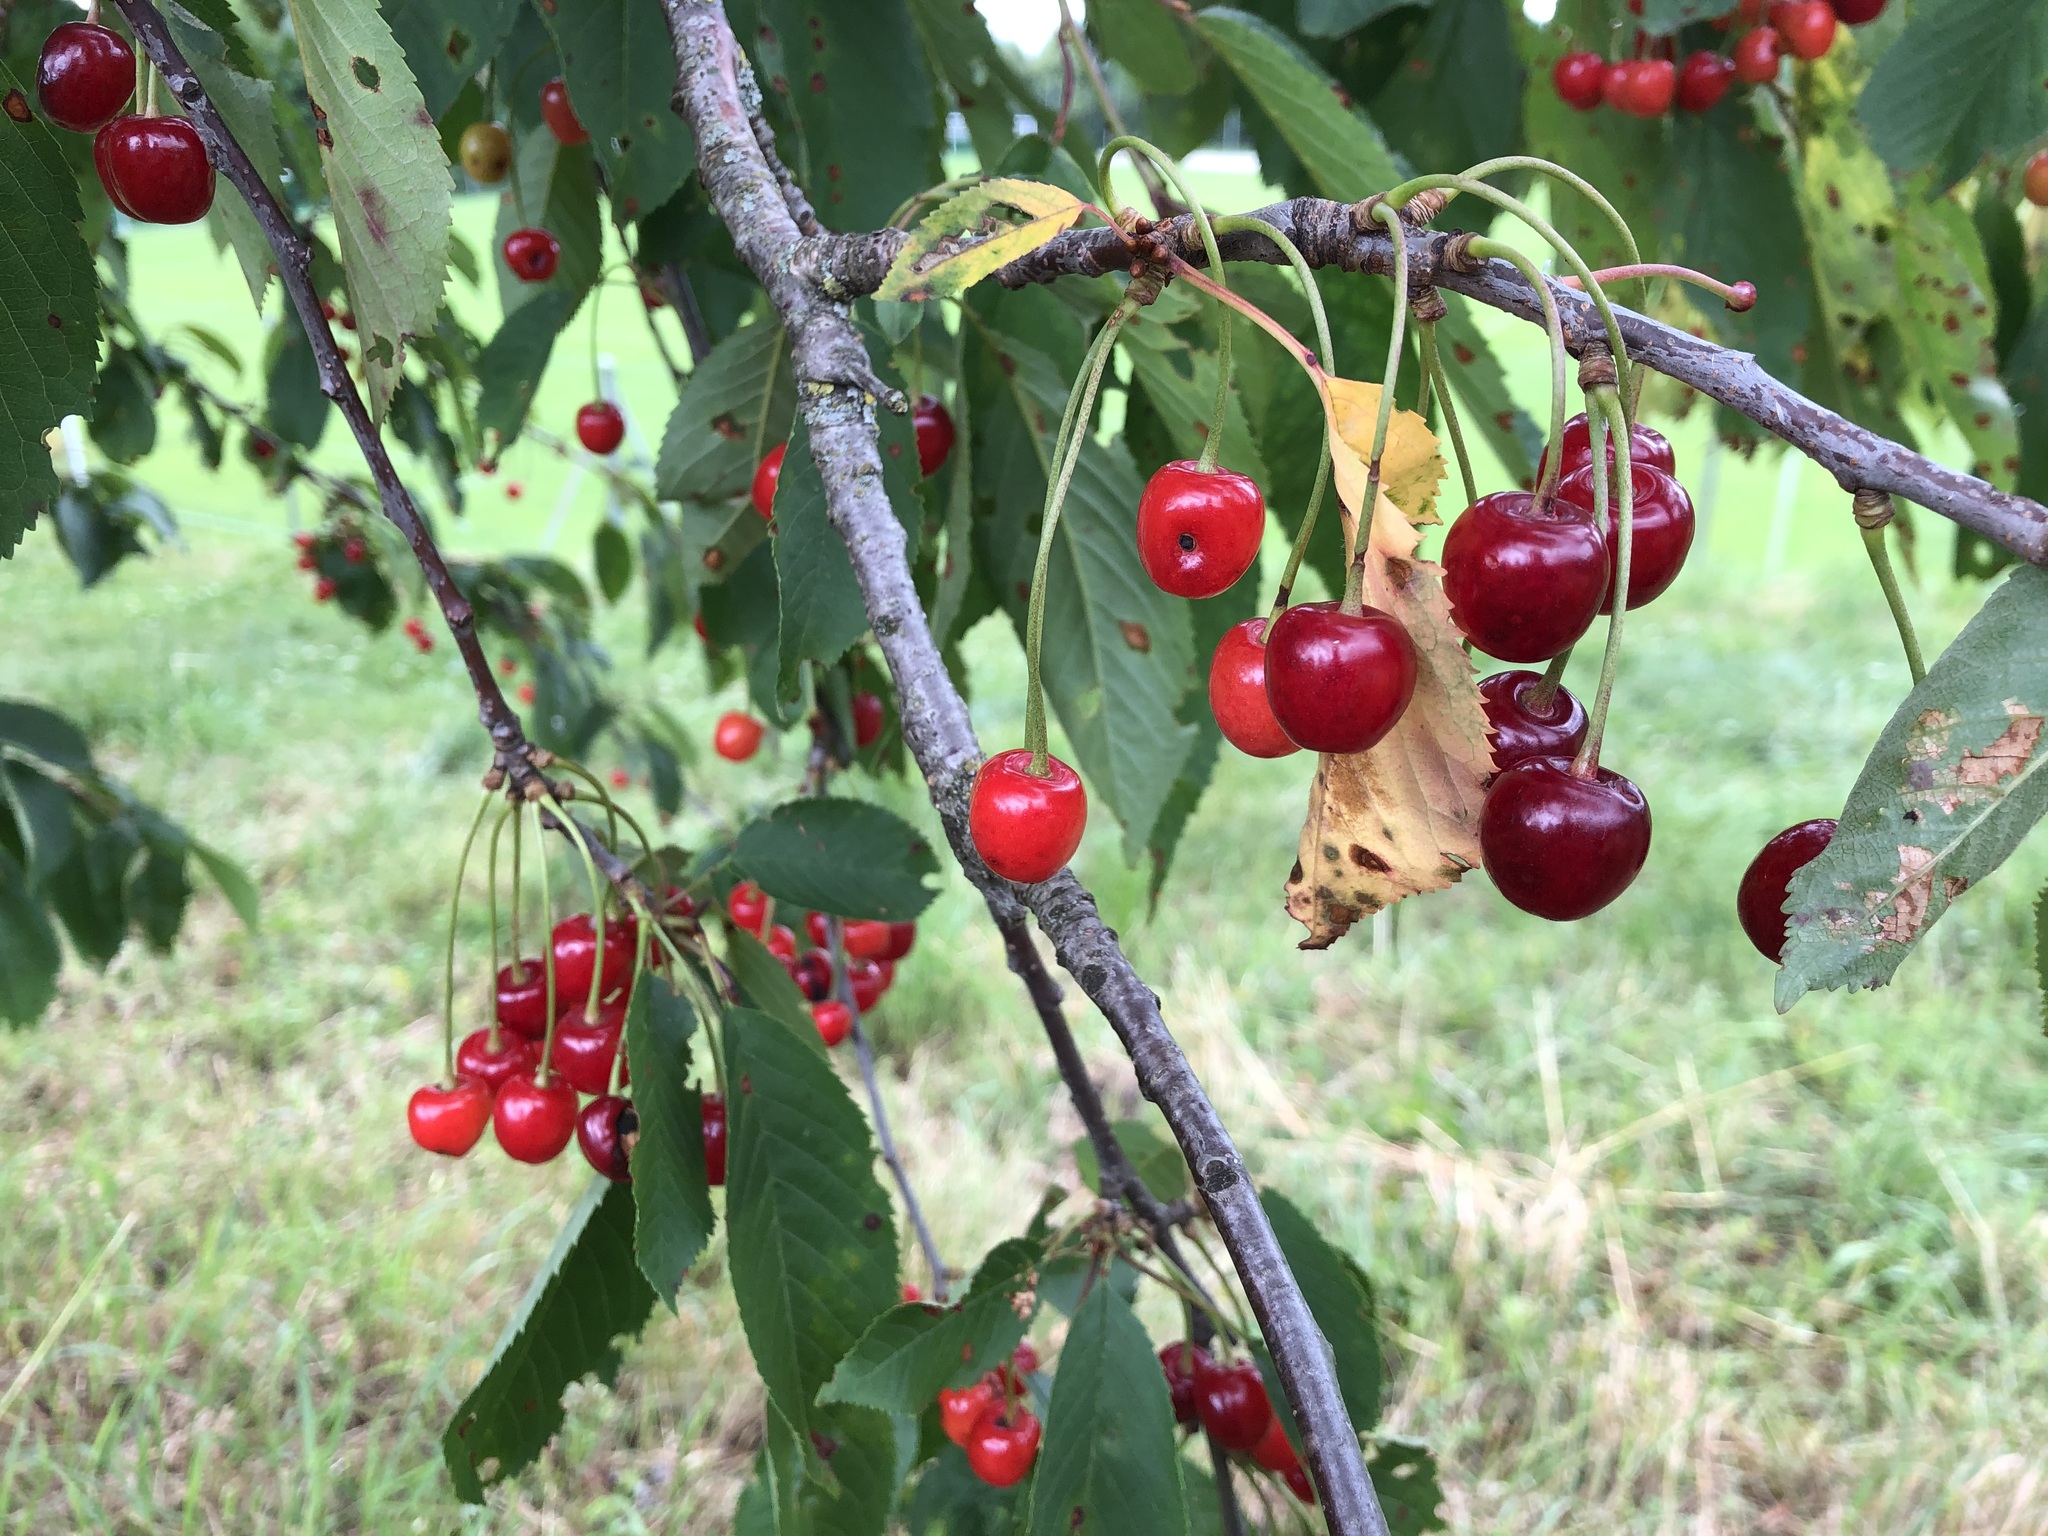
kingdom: Plantae
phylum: Tracheophyta
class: Magnoliopsida
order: Rosales
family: Rosaceae
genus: Prunus
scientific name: Prunus cerasus
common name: Morello cherry
